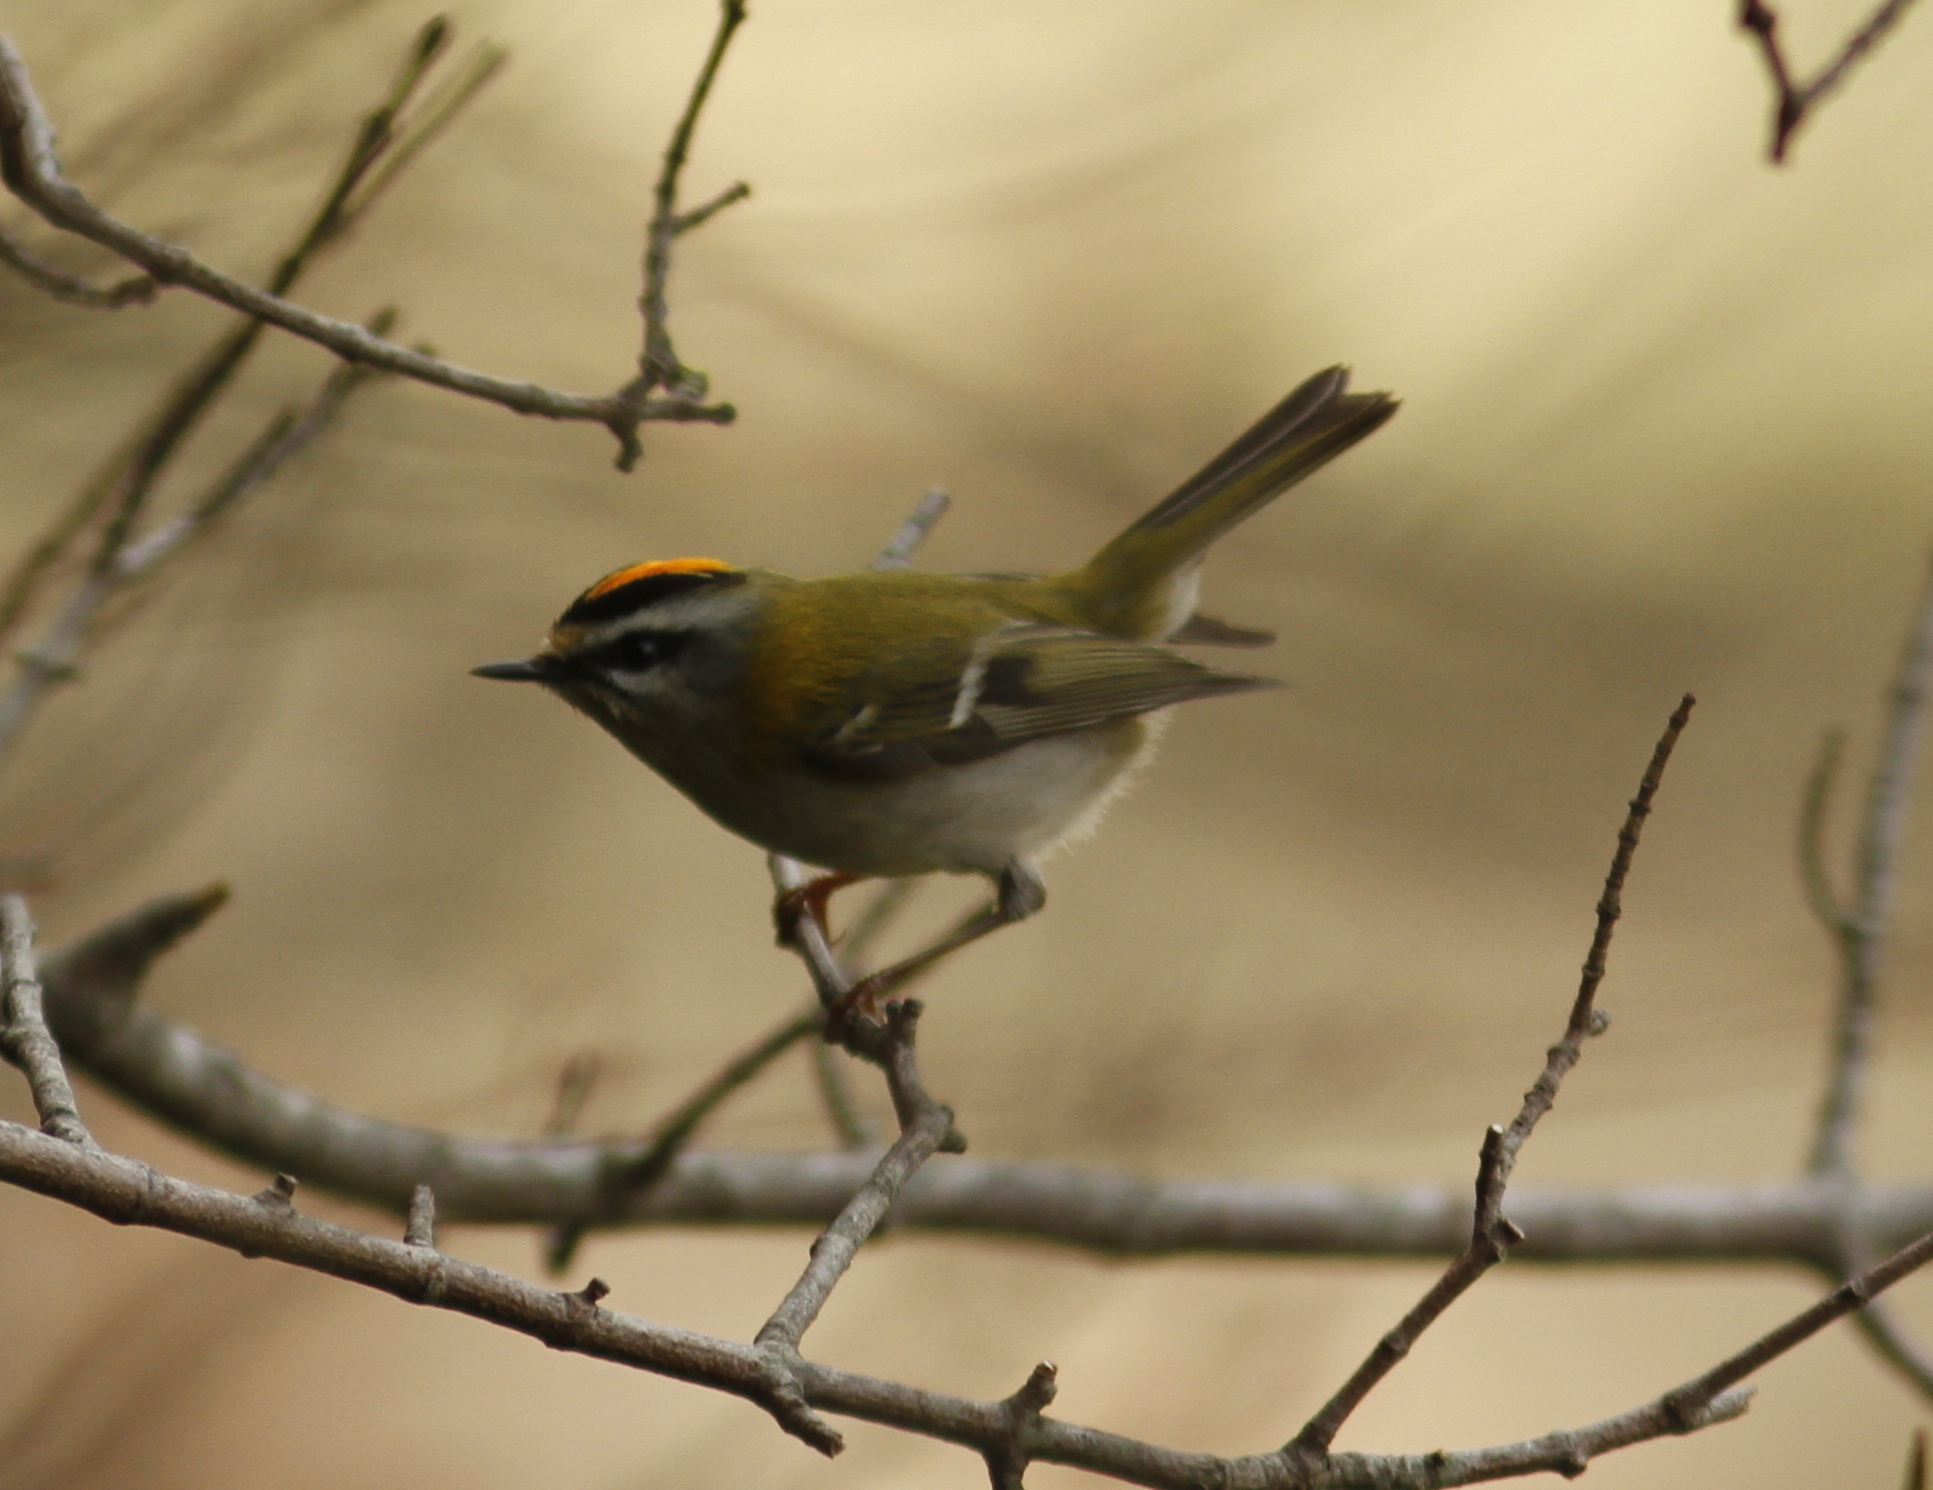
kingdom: Animalia
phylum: Chordata
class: Aves
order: Passeriformes
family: Regulidae
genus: Regulus
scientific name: Regulus ignicapilla
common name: Firecrest
